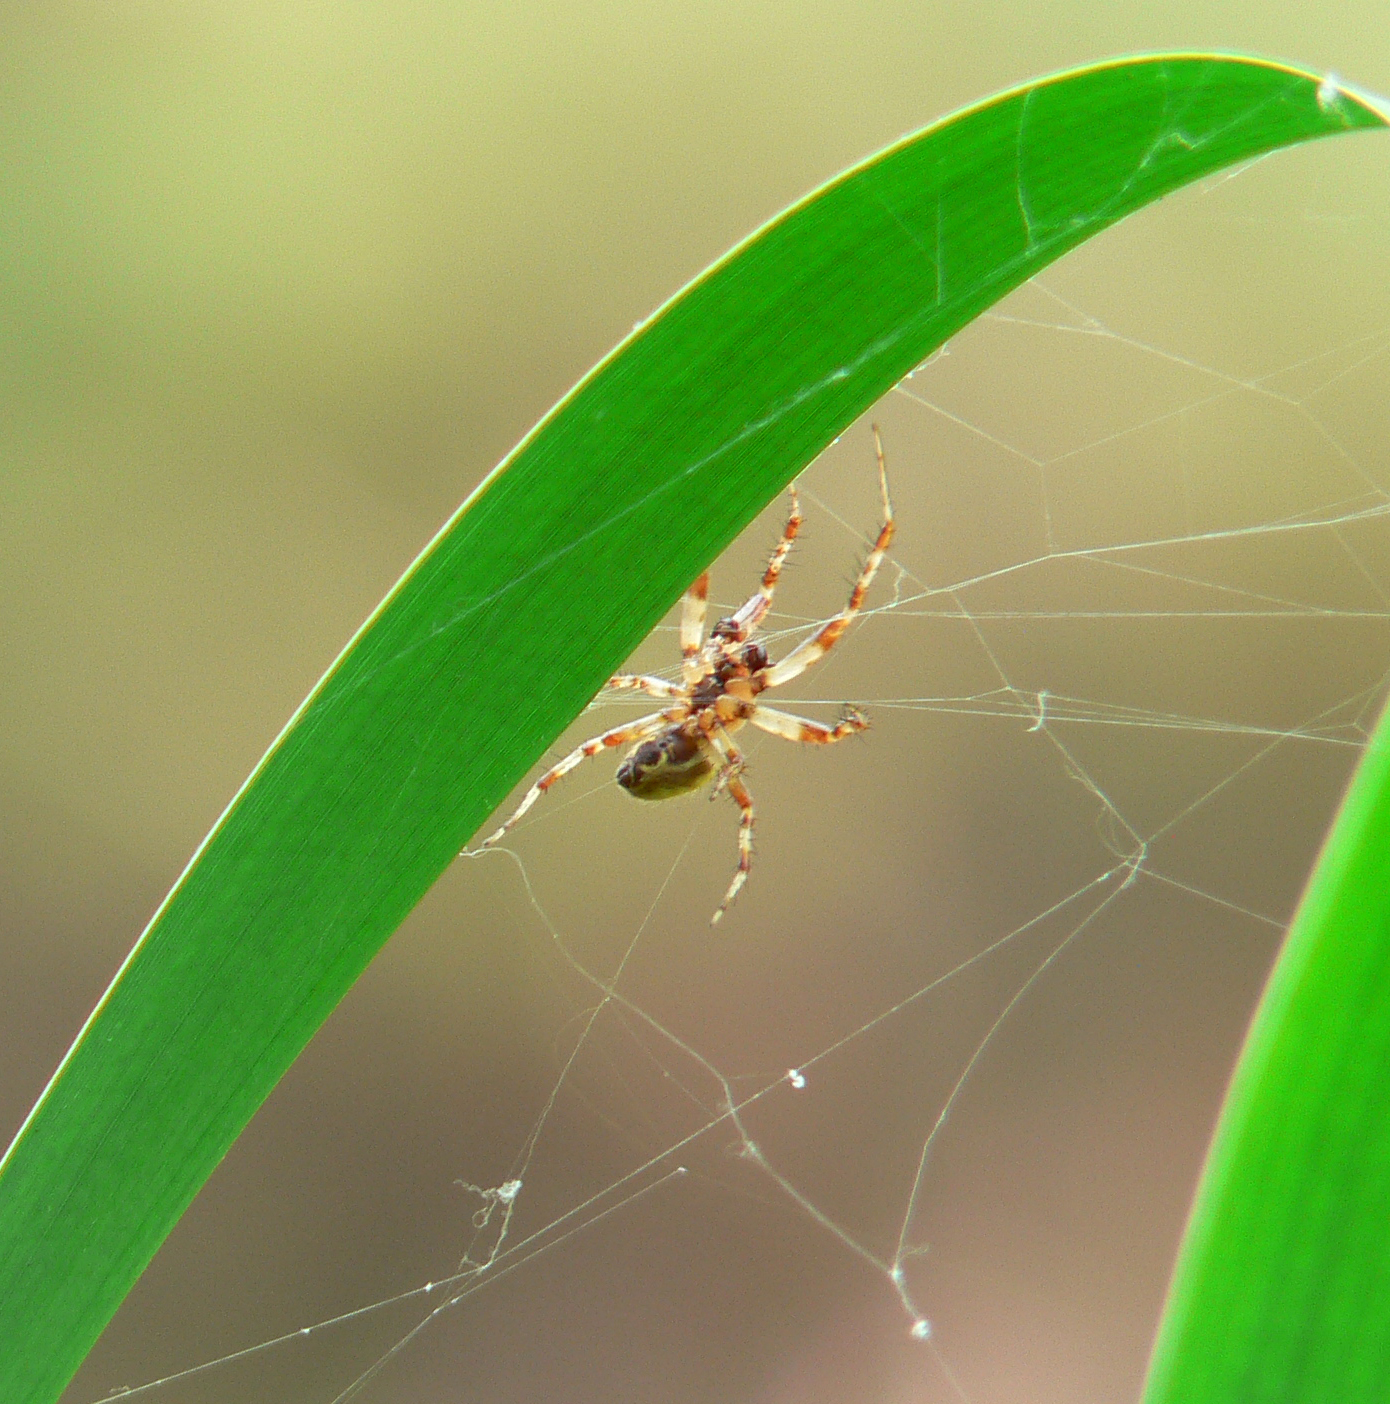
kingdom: Animalia
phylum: Arthropoda
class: Arachnida
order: Araneae
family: Araneidae
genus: Araneus
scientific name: Araneus quadratus
